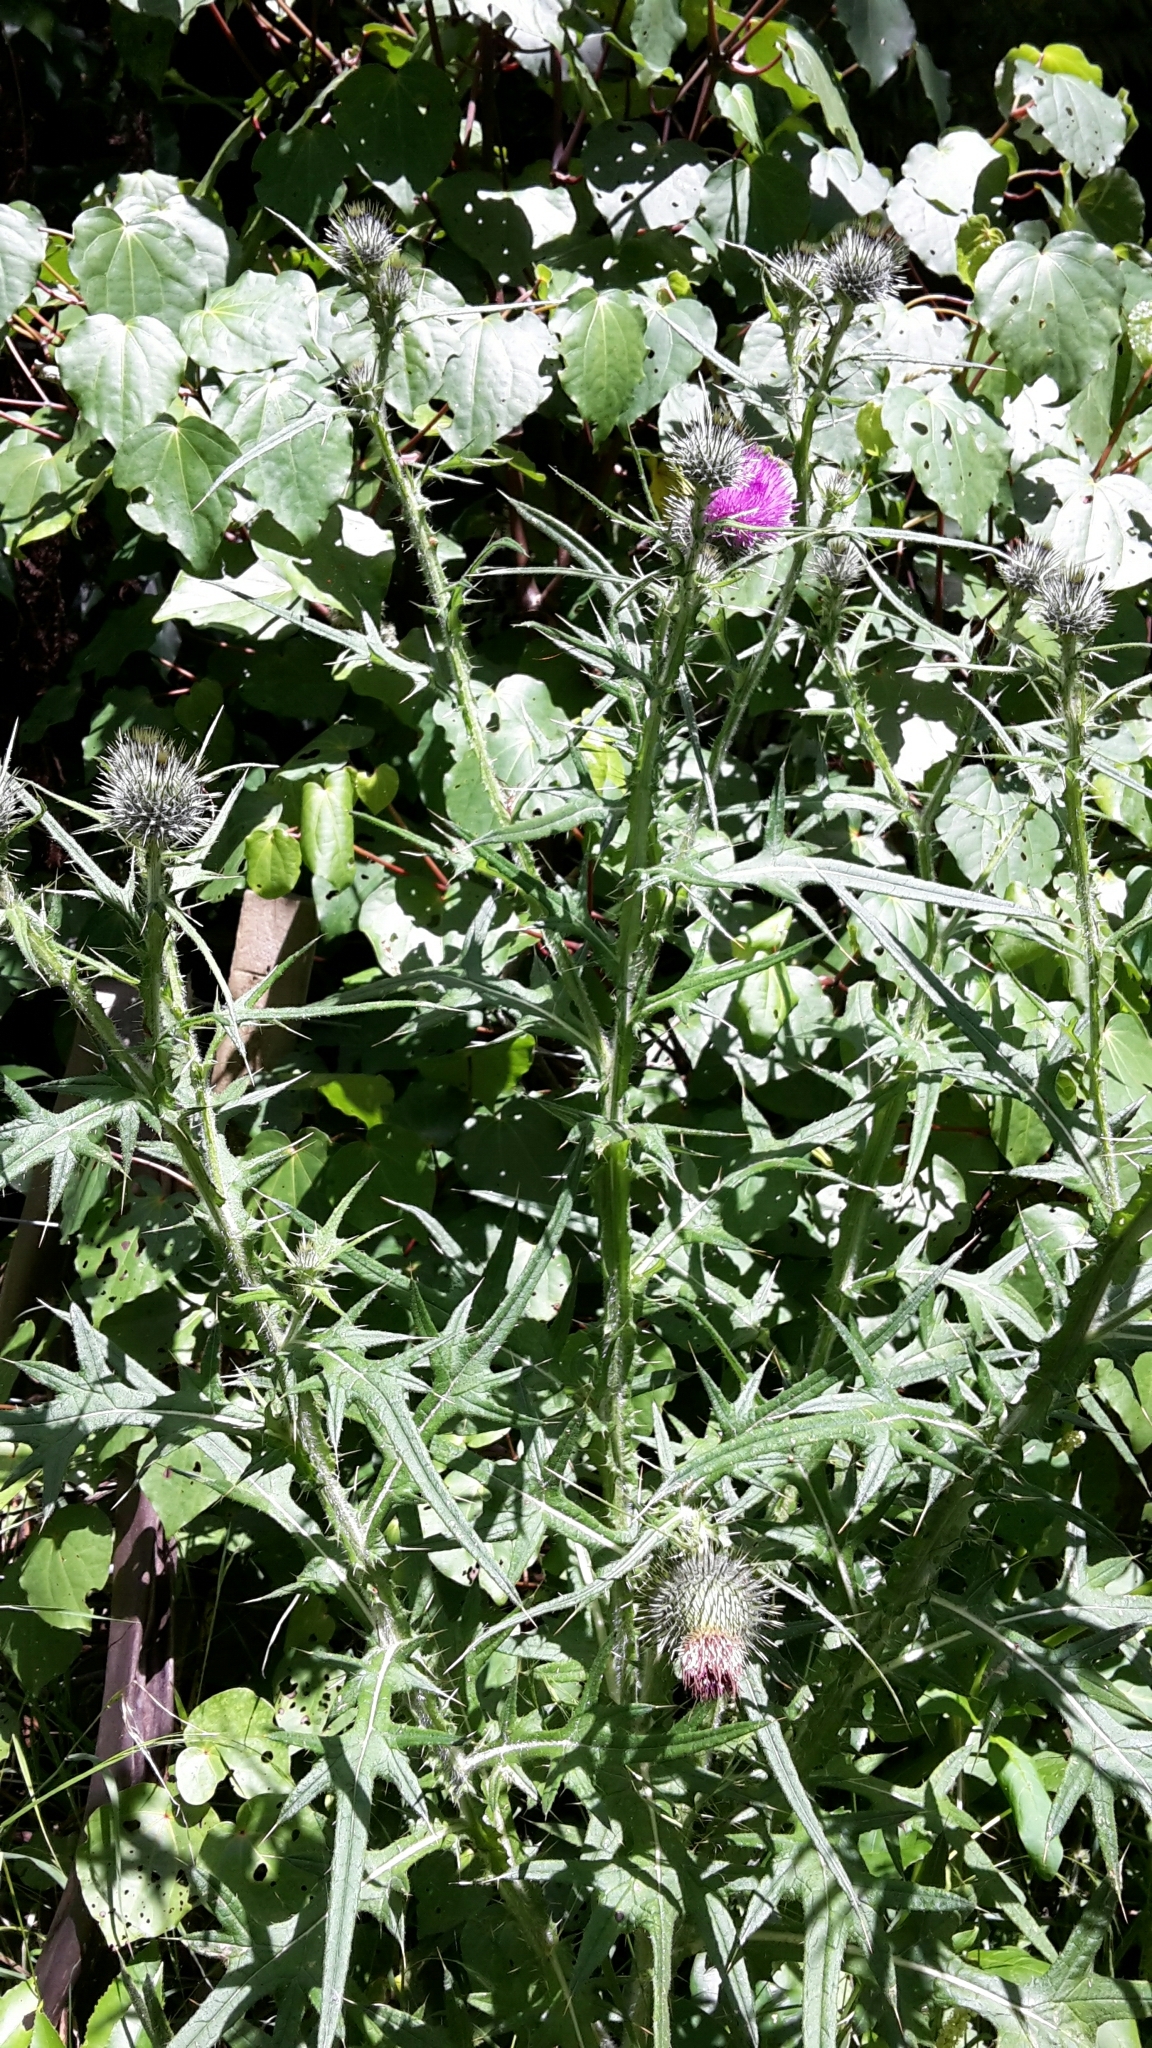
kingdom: Plantae
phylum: Tracheophyta
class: Magnoliopsida
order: Asterales
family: Asteraceae
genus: Cirsium
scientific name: Cirsium vulgare
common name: Bull thistle
